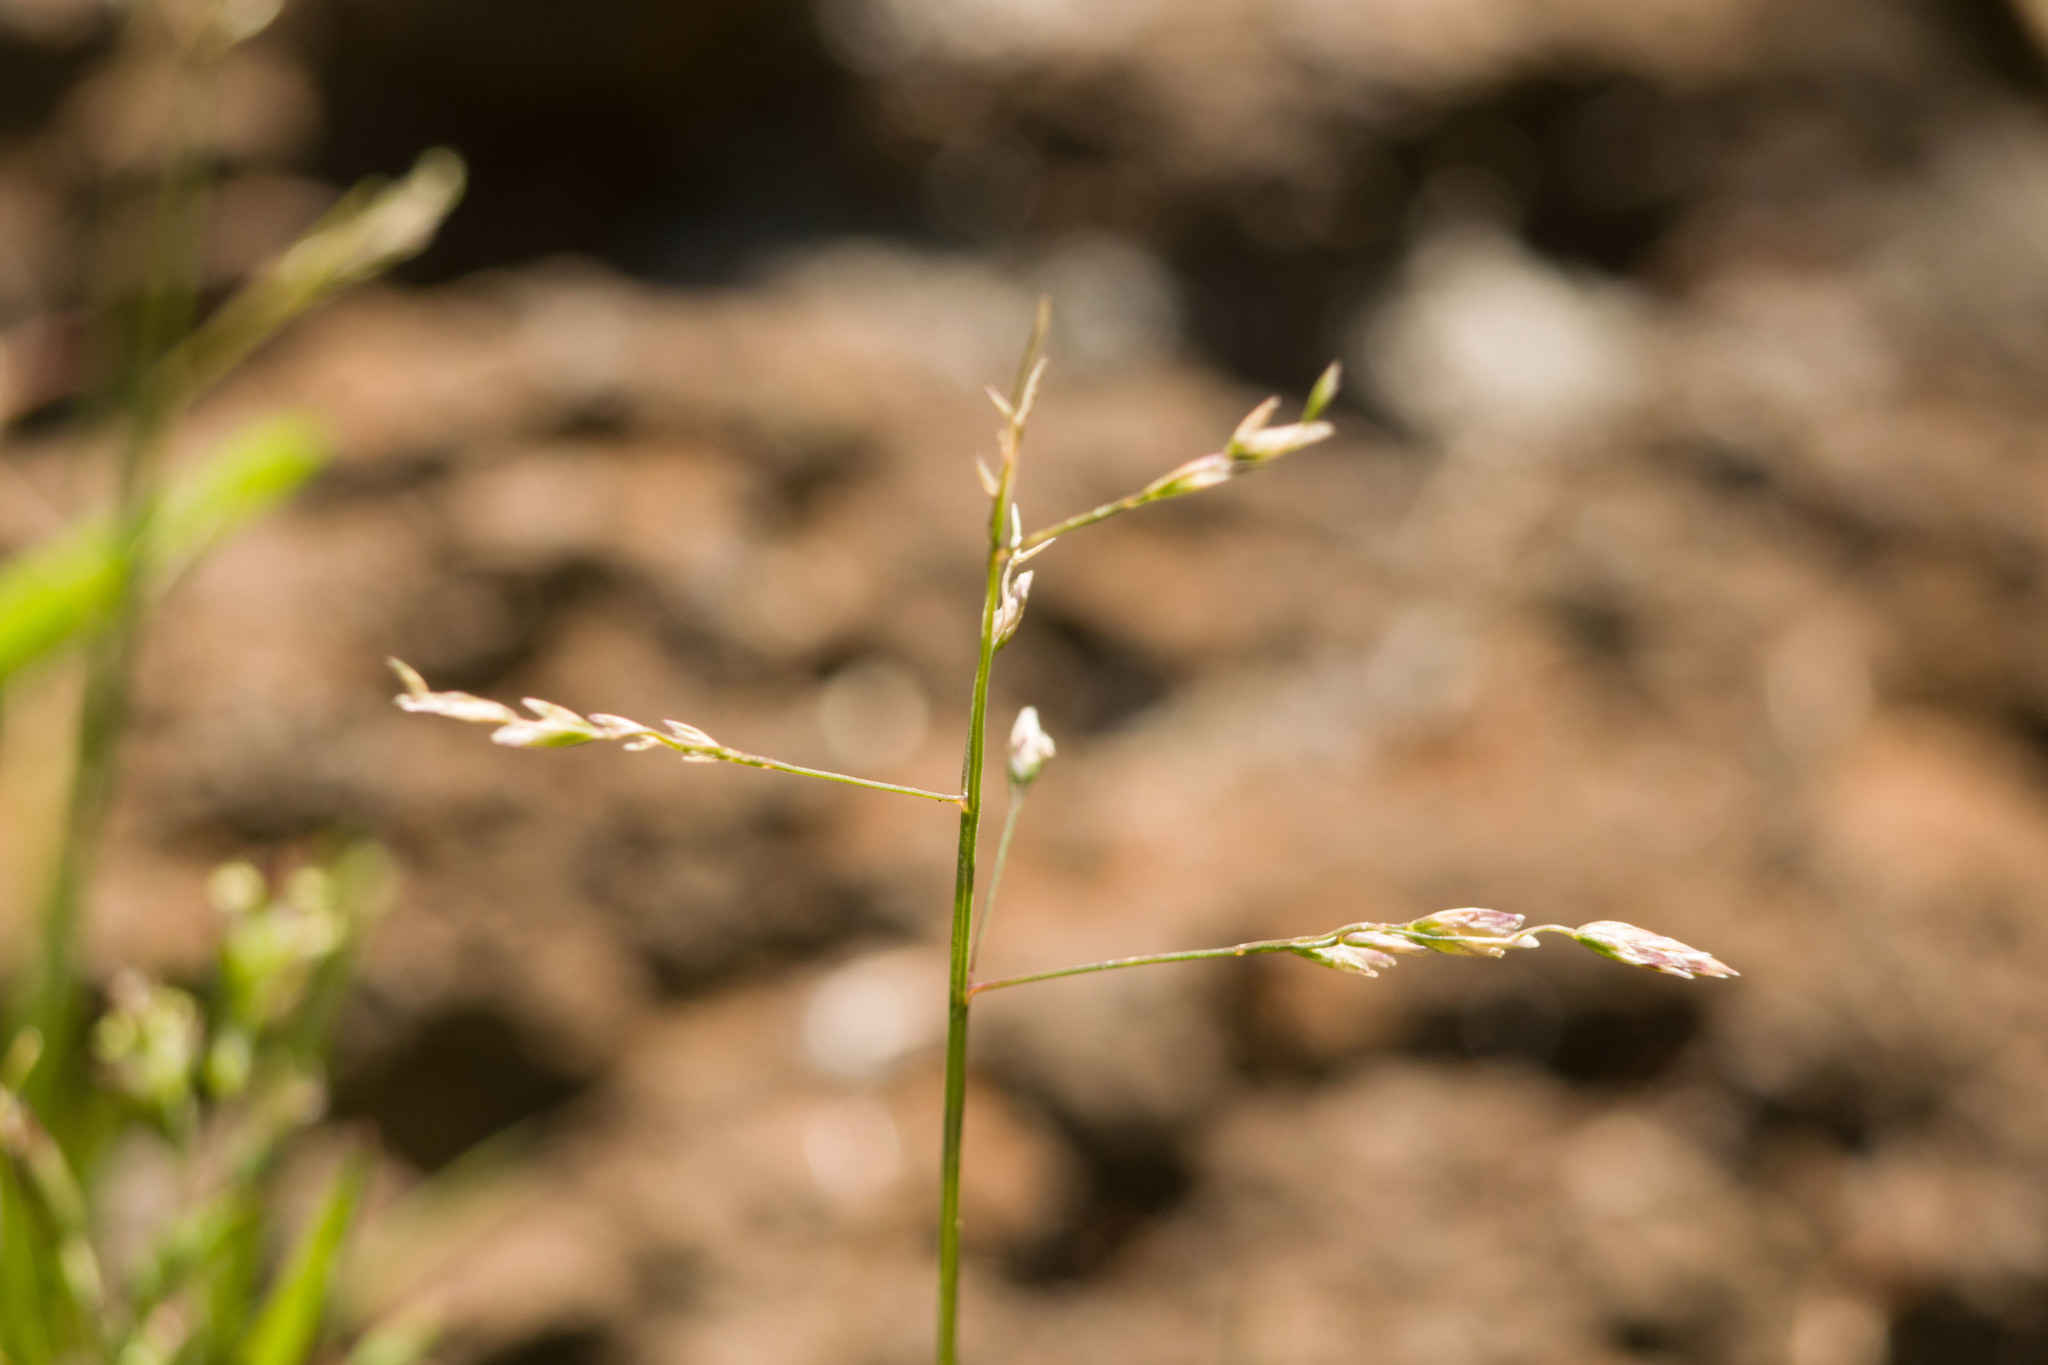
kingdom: Plantae
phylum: Tracheophyta
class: Liliopsida
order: Poales
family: Poaceae
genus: Poa
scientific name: Poa annua
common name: Annual bluegrass
